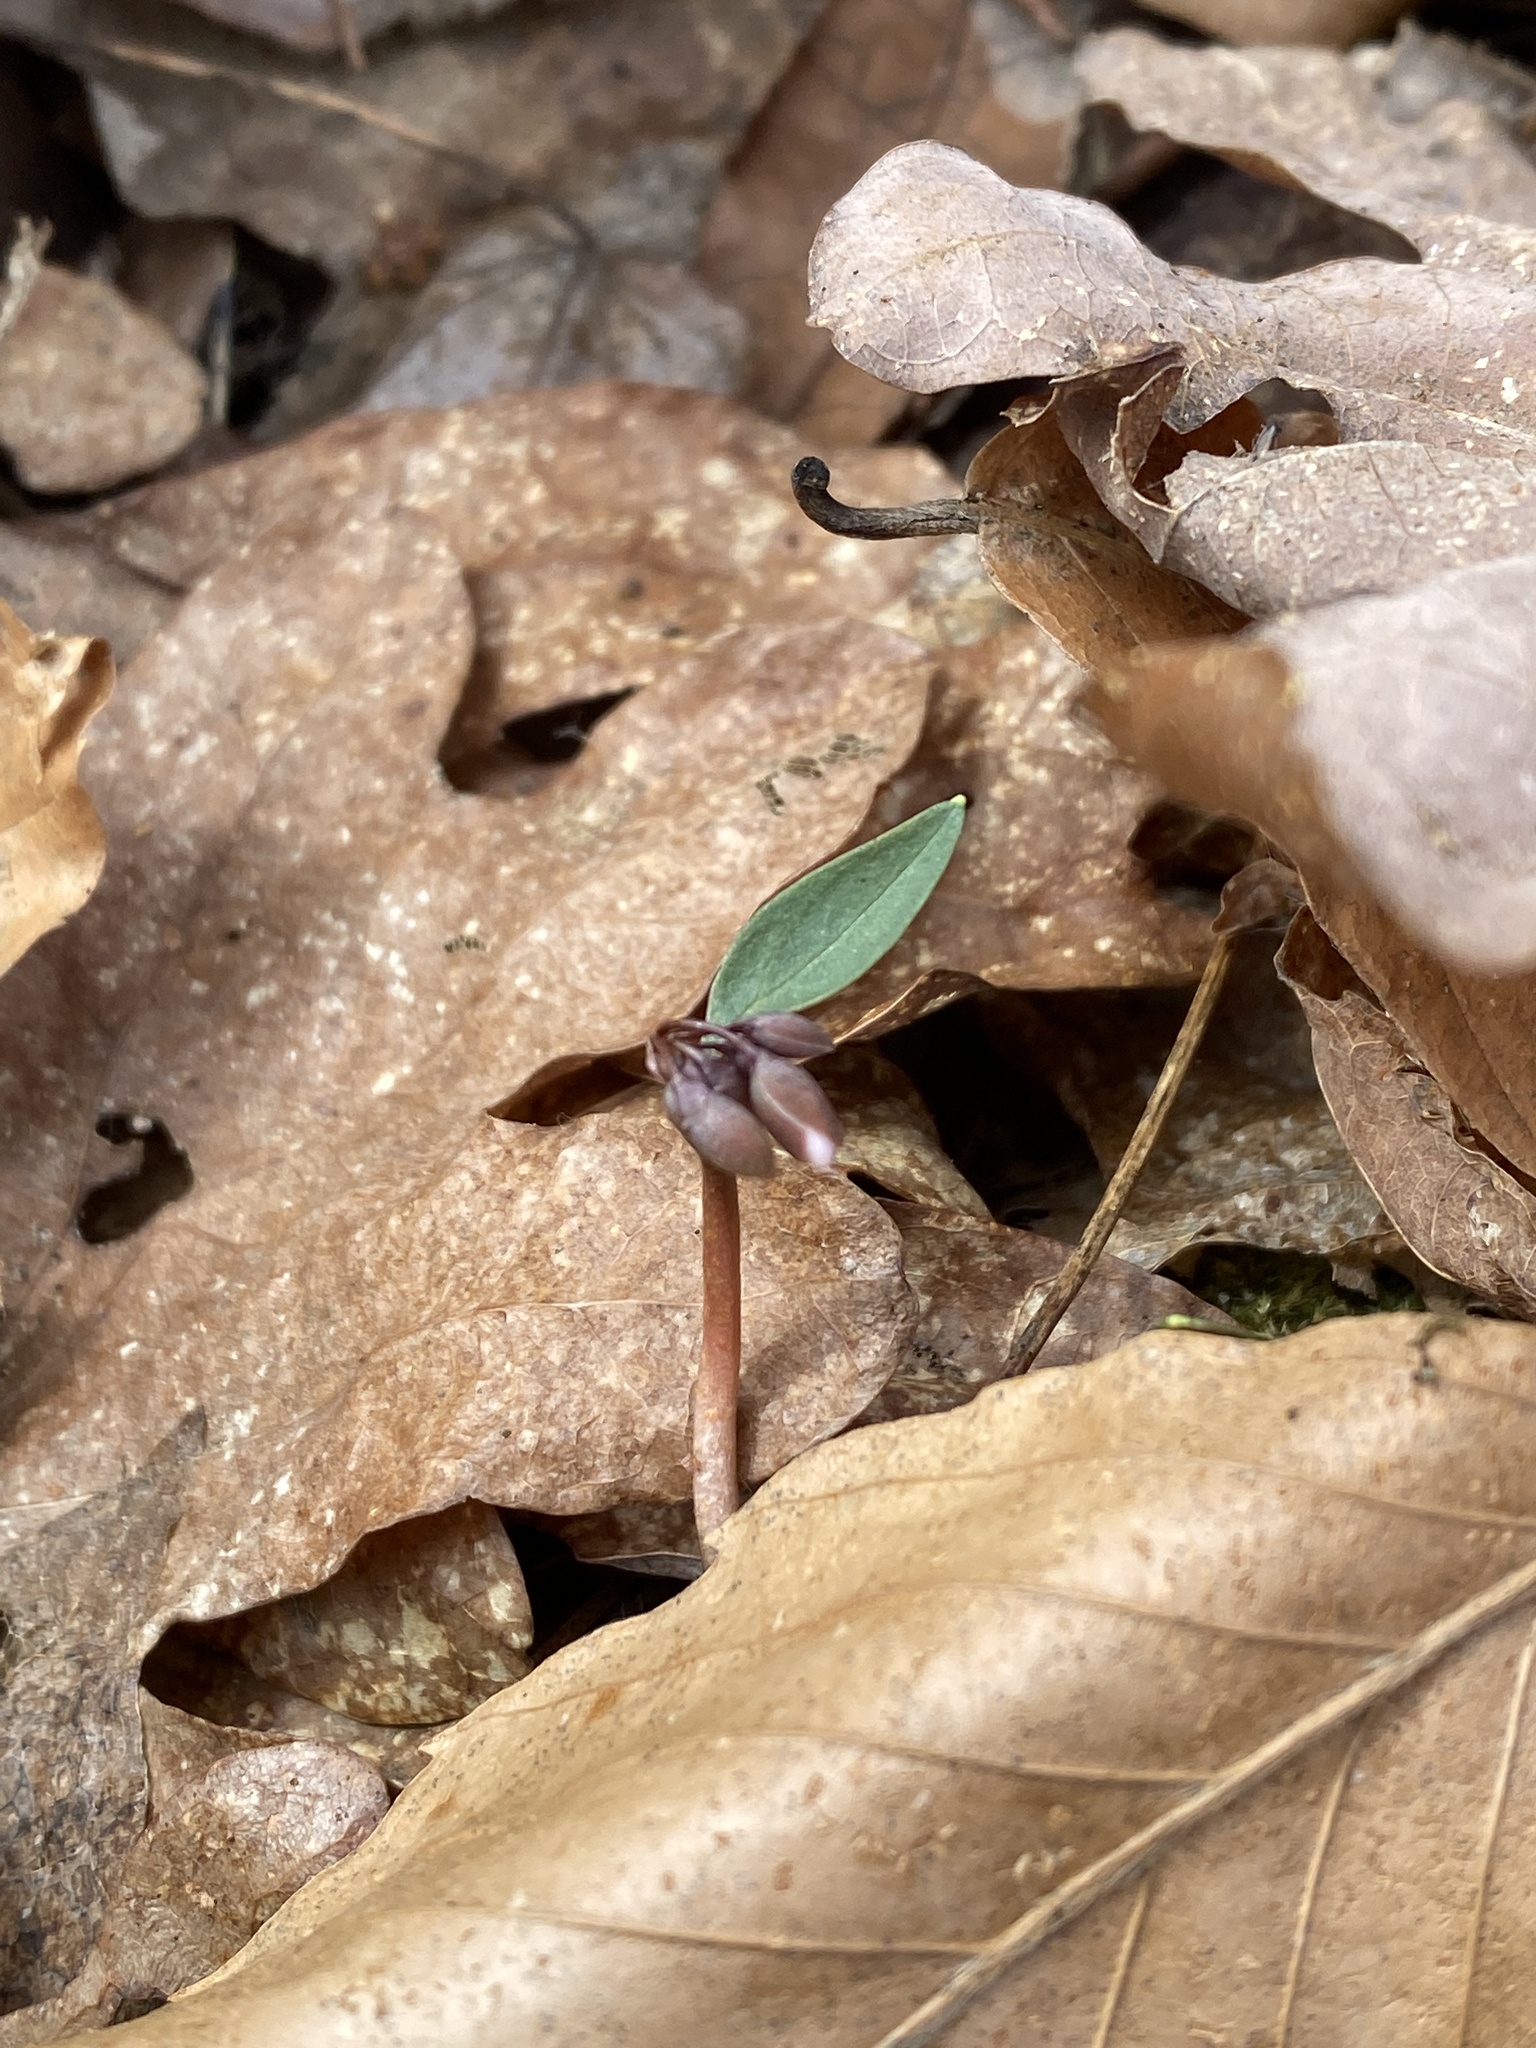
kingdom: Plantae
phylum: Tracheophyta
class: Magnoliopsida
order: Caryophyllales
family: Montiaceae
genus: Claytonia
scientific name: Claytonia caroliniana
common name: Carolina spring beauty
